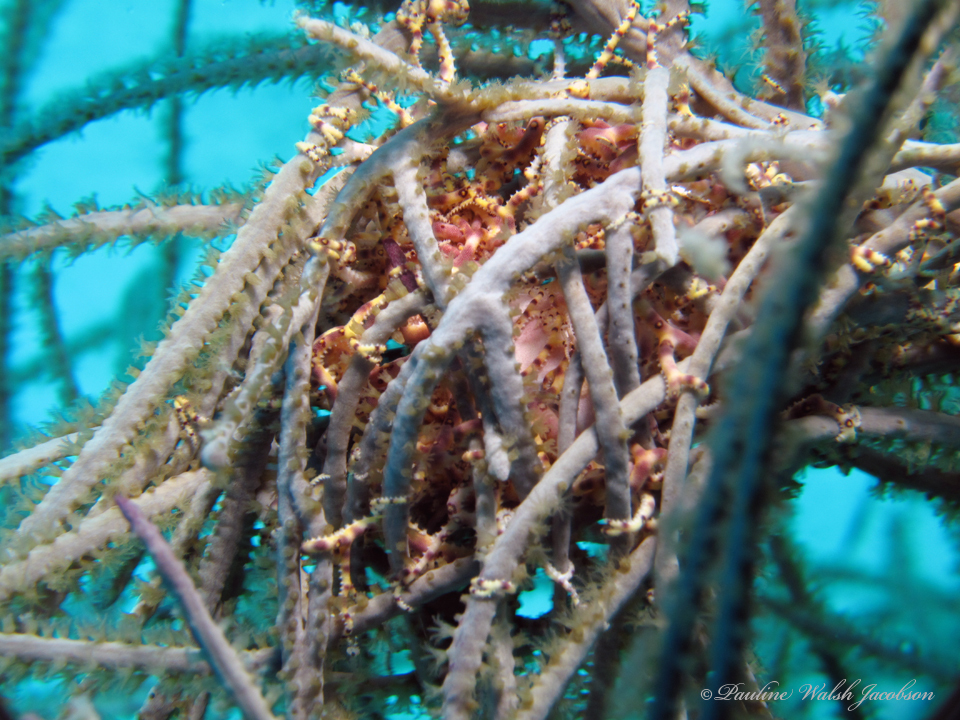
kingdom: Animalia
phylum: Echinodermata
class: Ophiuroidea
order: Euryalida
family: Gorgonocephalidae
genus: Astrophyton
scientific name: Astrophyton muricatum
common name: Basket starfish
